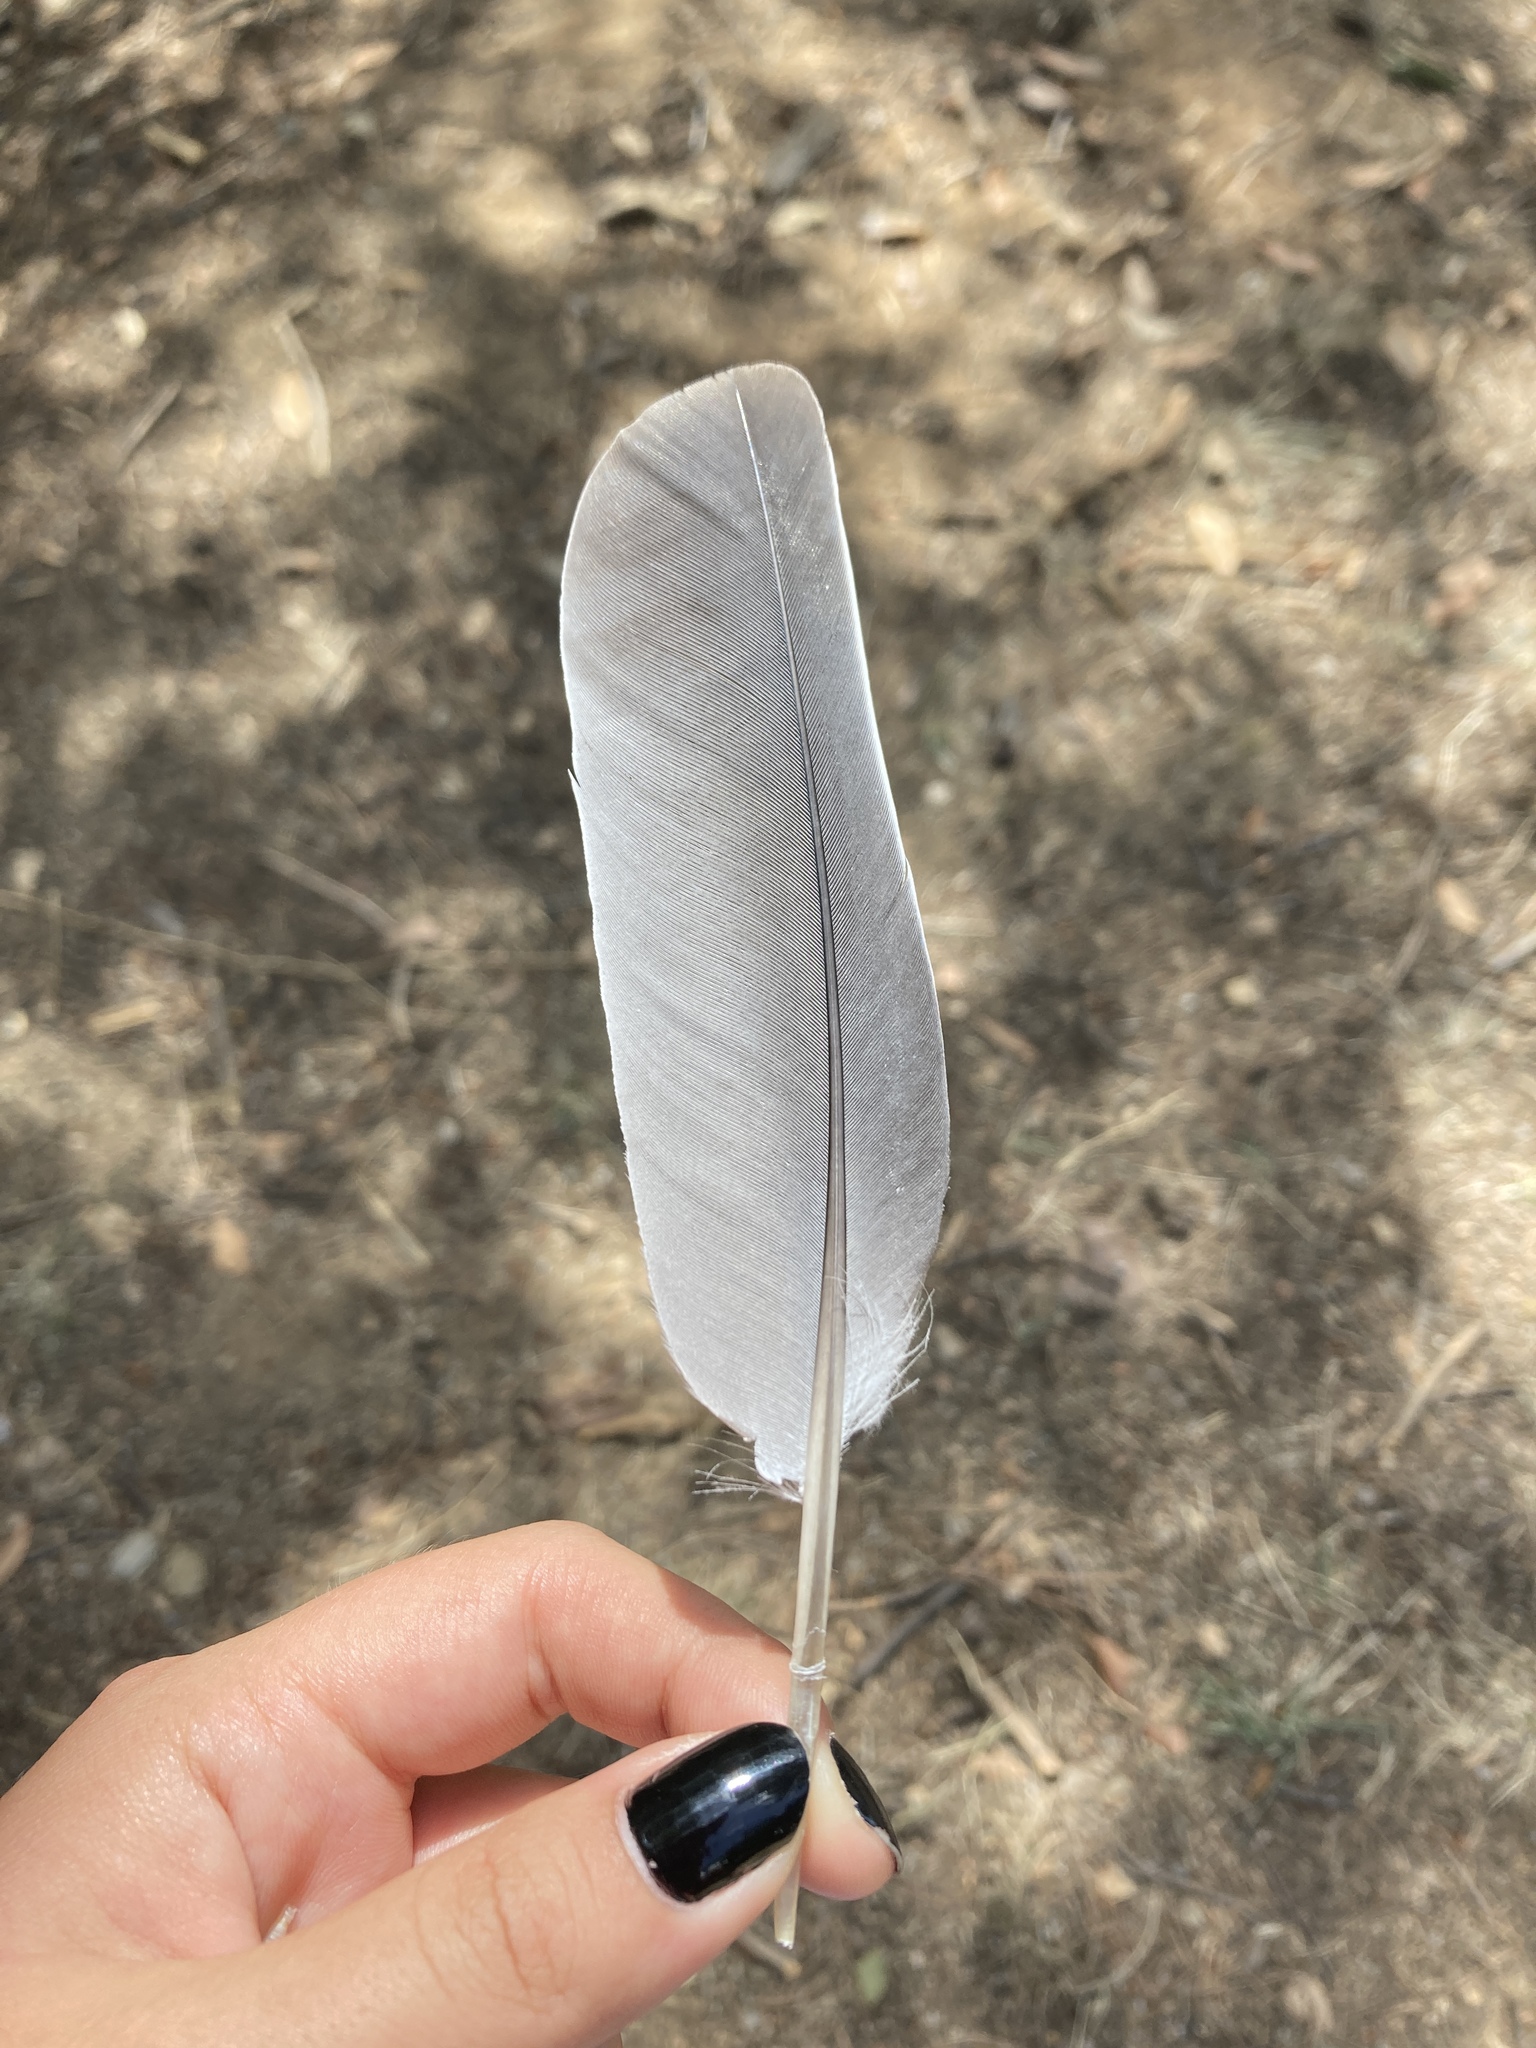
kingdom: Animalia
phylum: Chordata
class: Aves
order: Columbiformes
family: Columbidae
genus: Columba
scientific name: Columba palumbus
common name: Common wood pigeon
